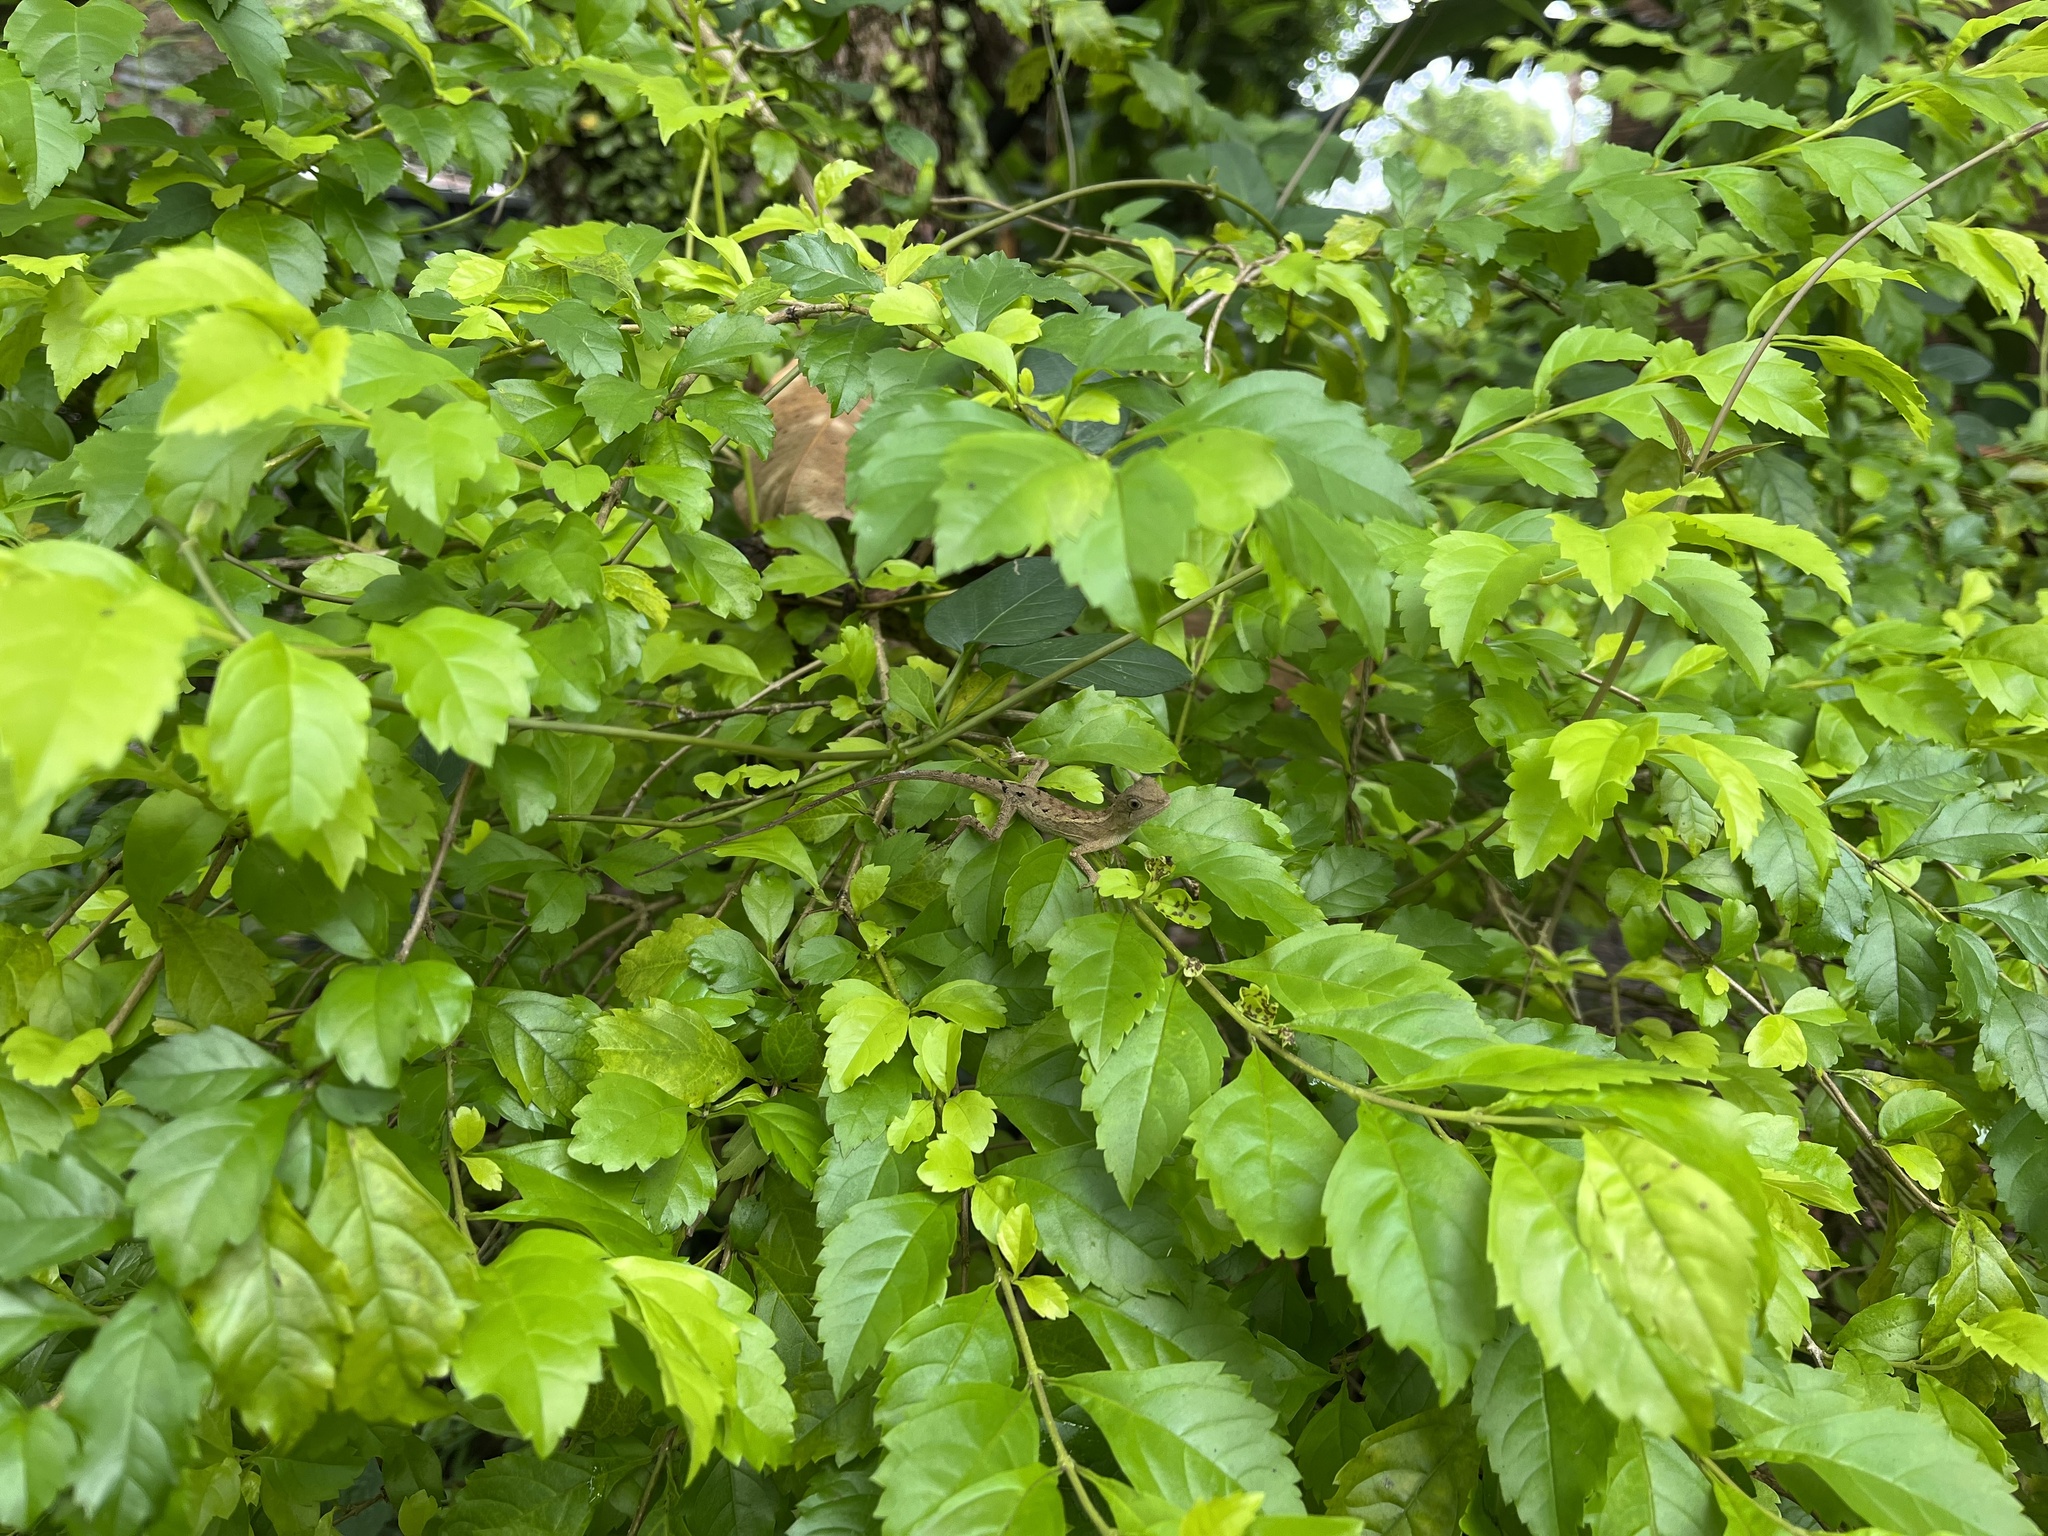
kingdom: Animalia
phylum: Chordata
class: Squamata
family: Agamidae
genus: Diploderma
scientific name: Diploderma swinhonis
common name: Taiwan japalure
